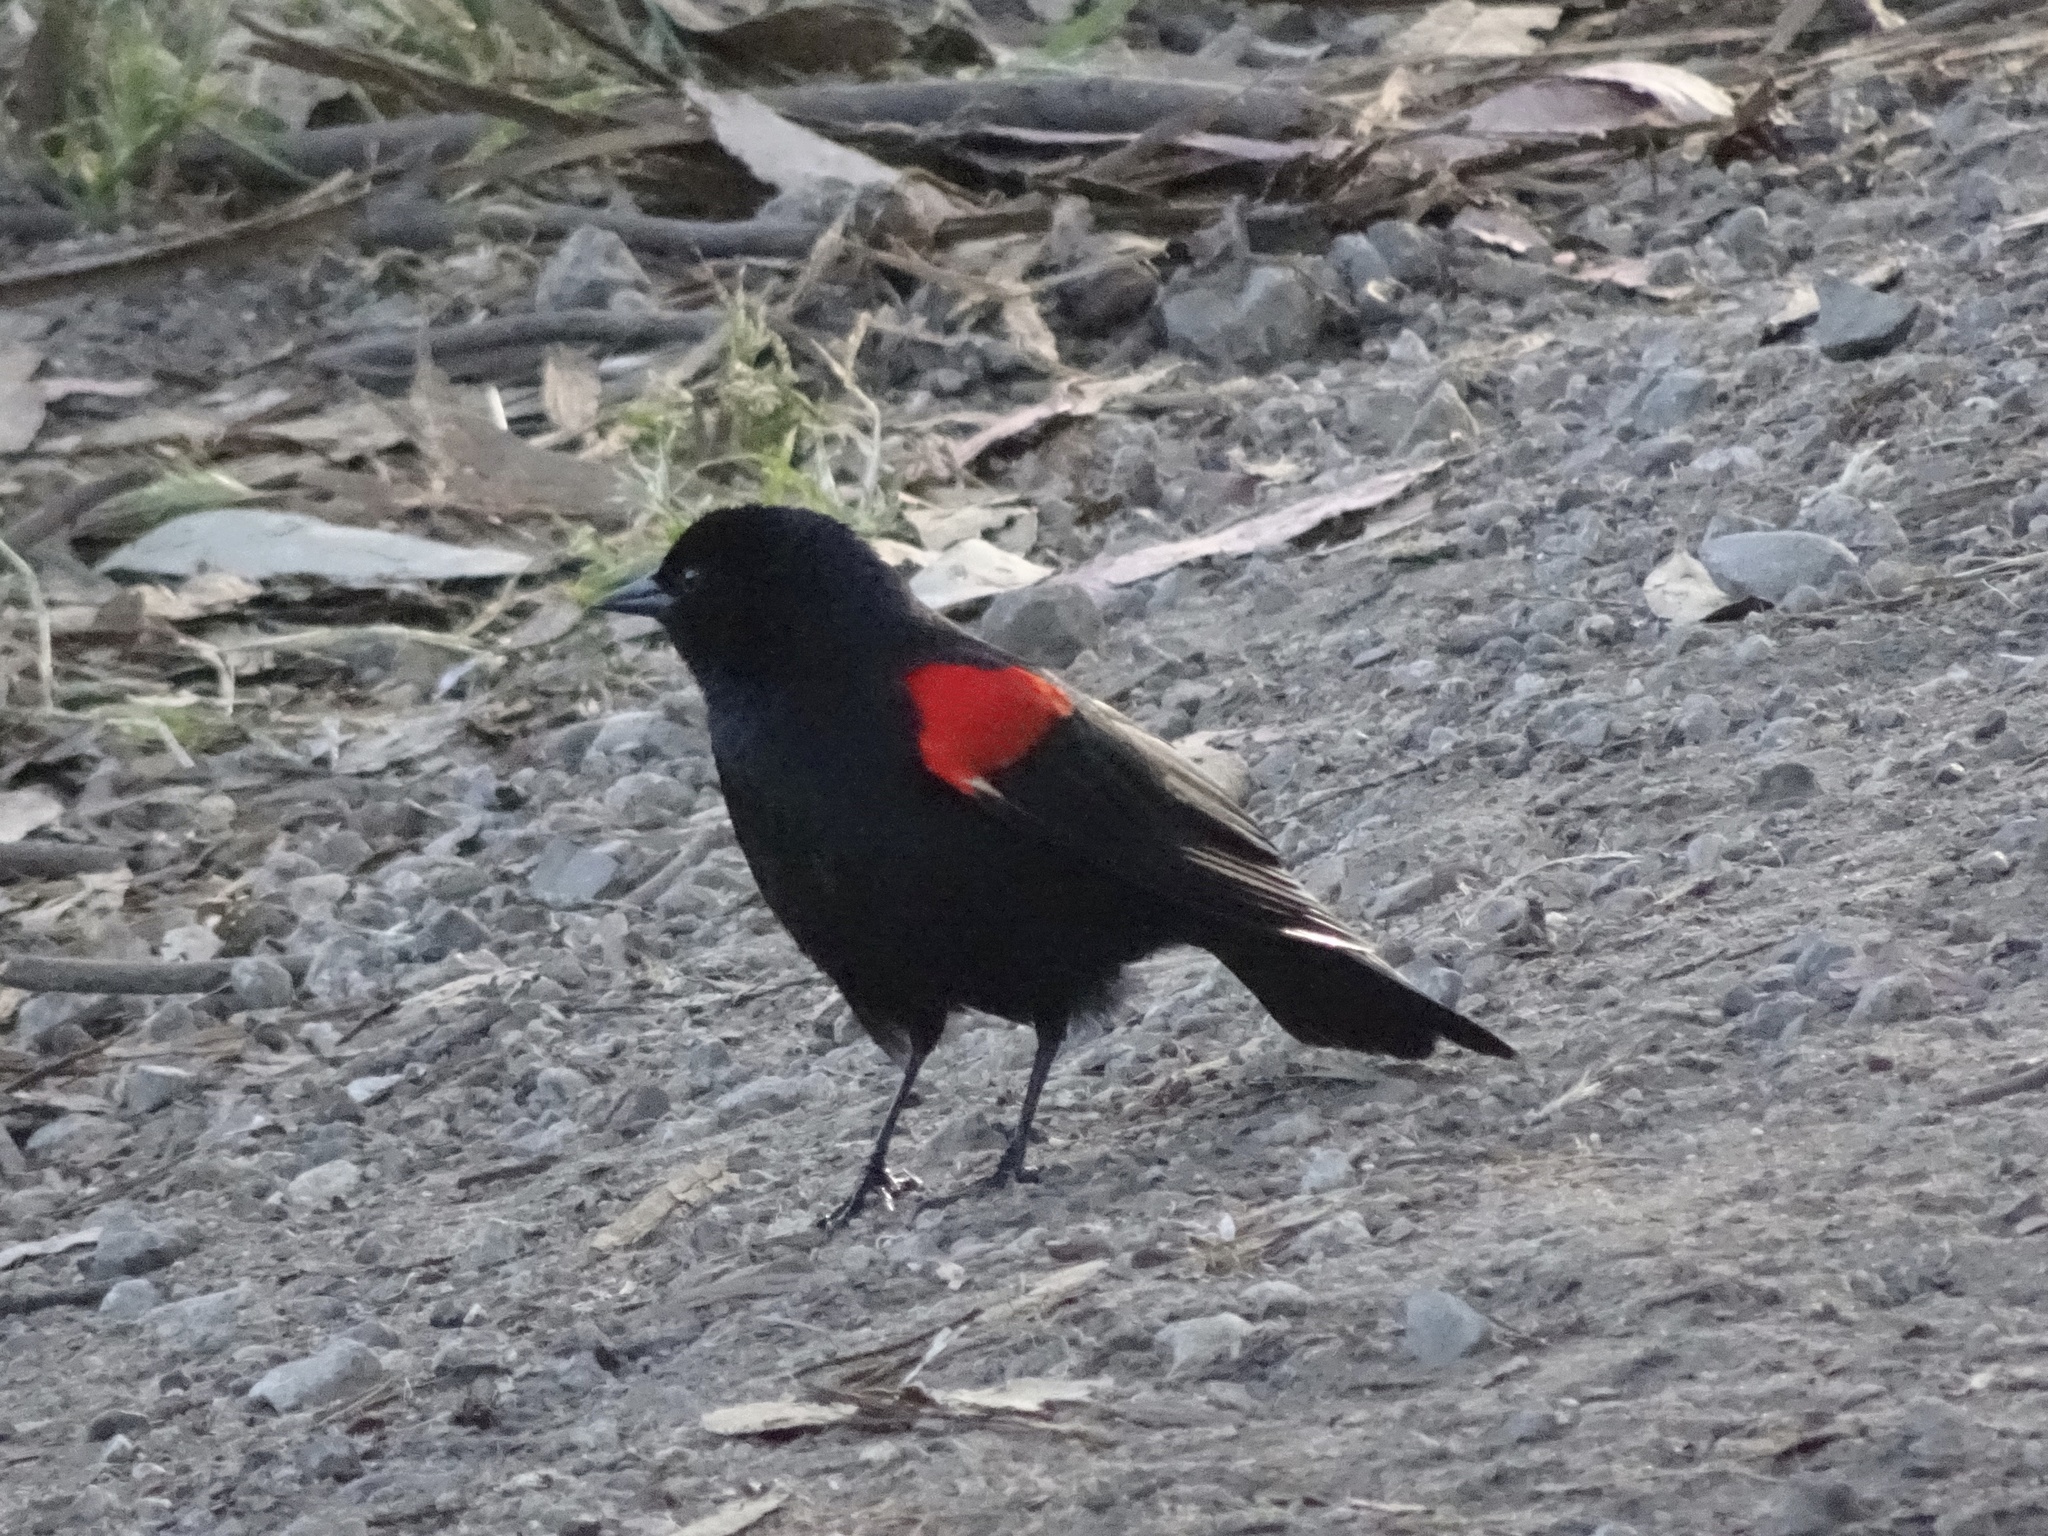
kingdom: Animalia
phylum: Chordata
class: Aves
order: Passeriformes
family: Icteridae
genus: Agelaius
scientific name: Agelaius phoeniceus
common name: Red-winged blackbird
